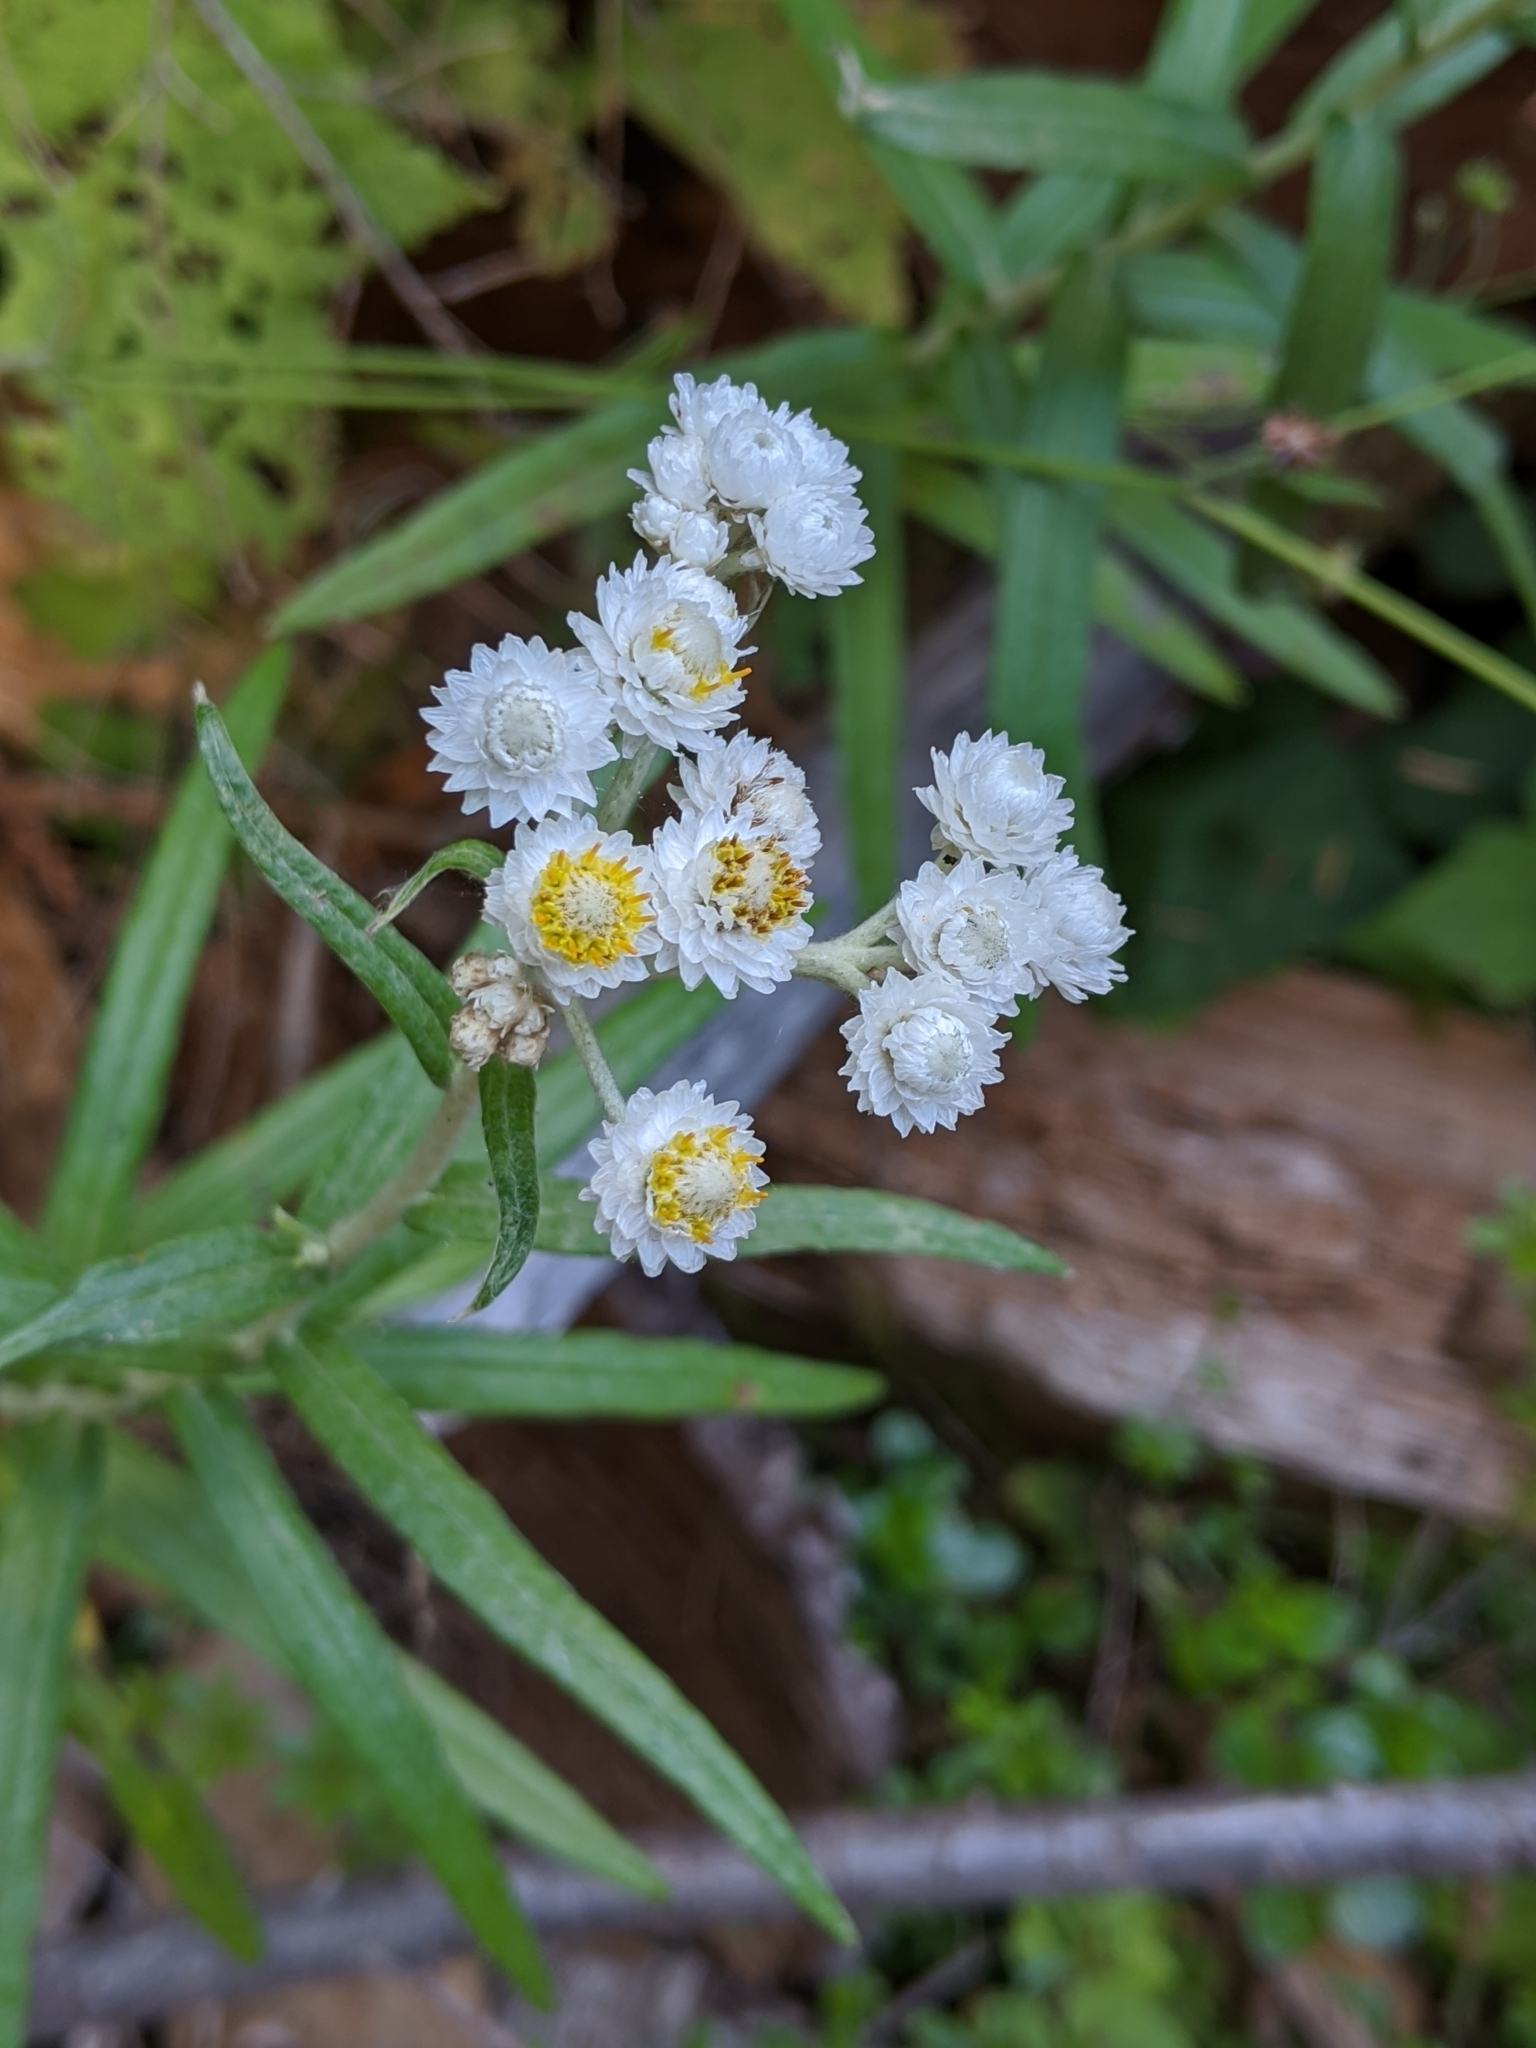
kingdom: Plantae
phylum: Tracheophyta
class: Magnoliopsida
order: Asterales
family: Asteraceae
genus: Anaphalis
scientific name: Anaphalis margaritacea
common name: Pearly everlasting
